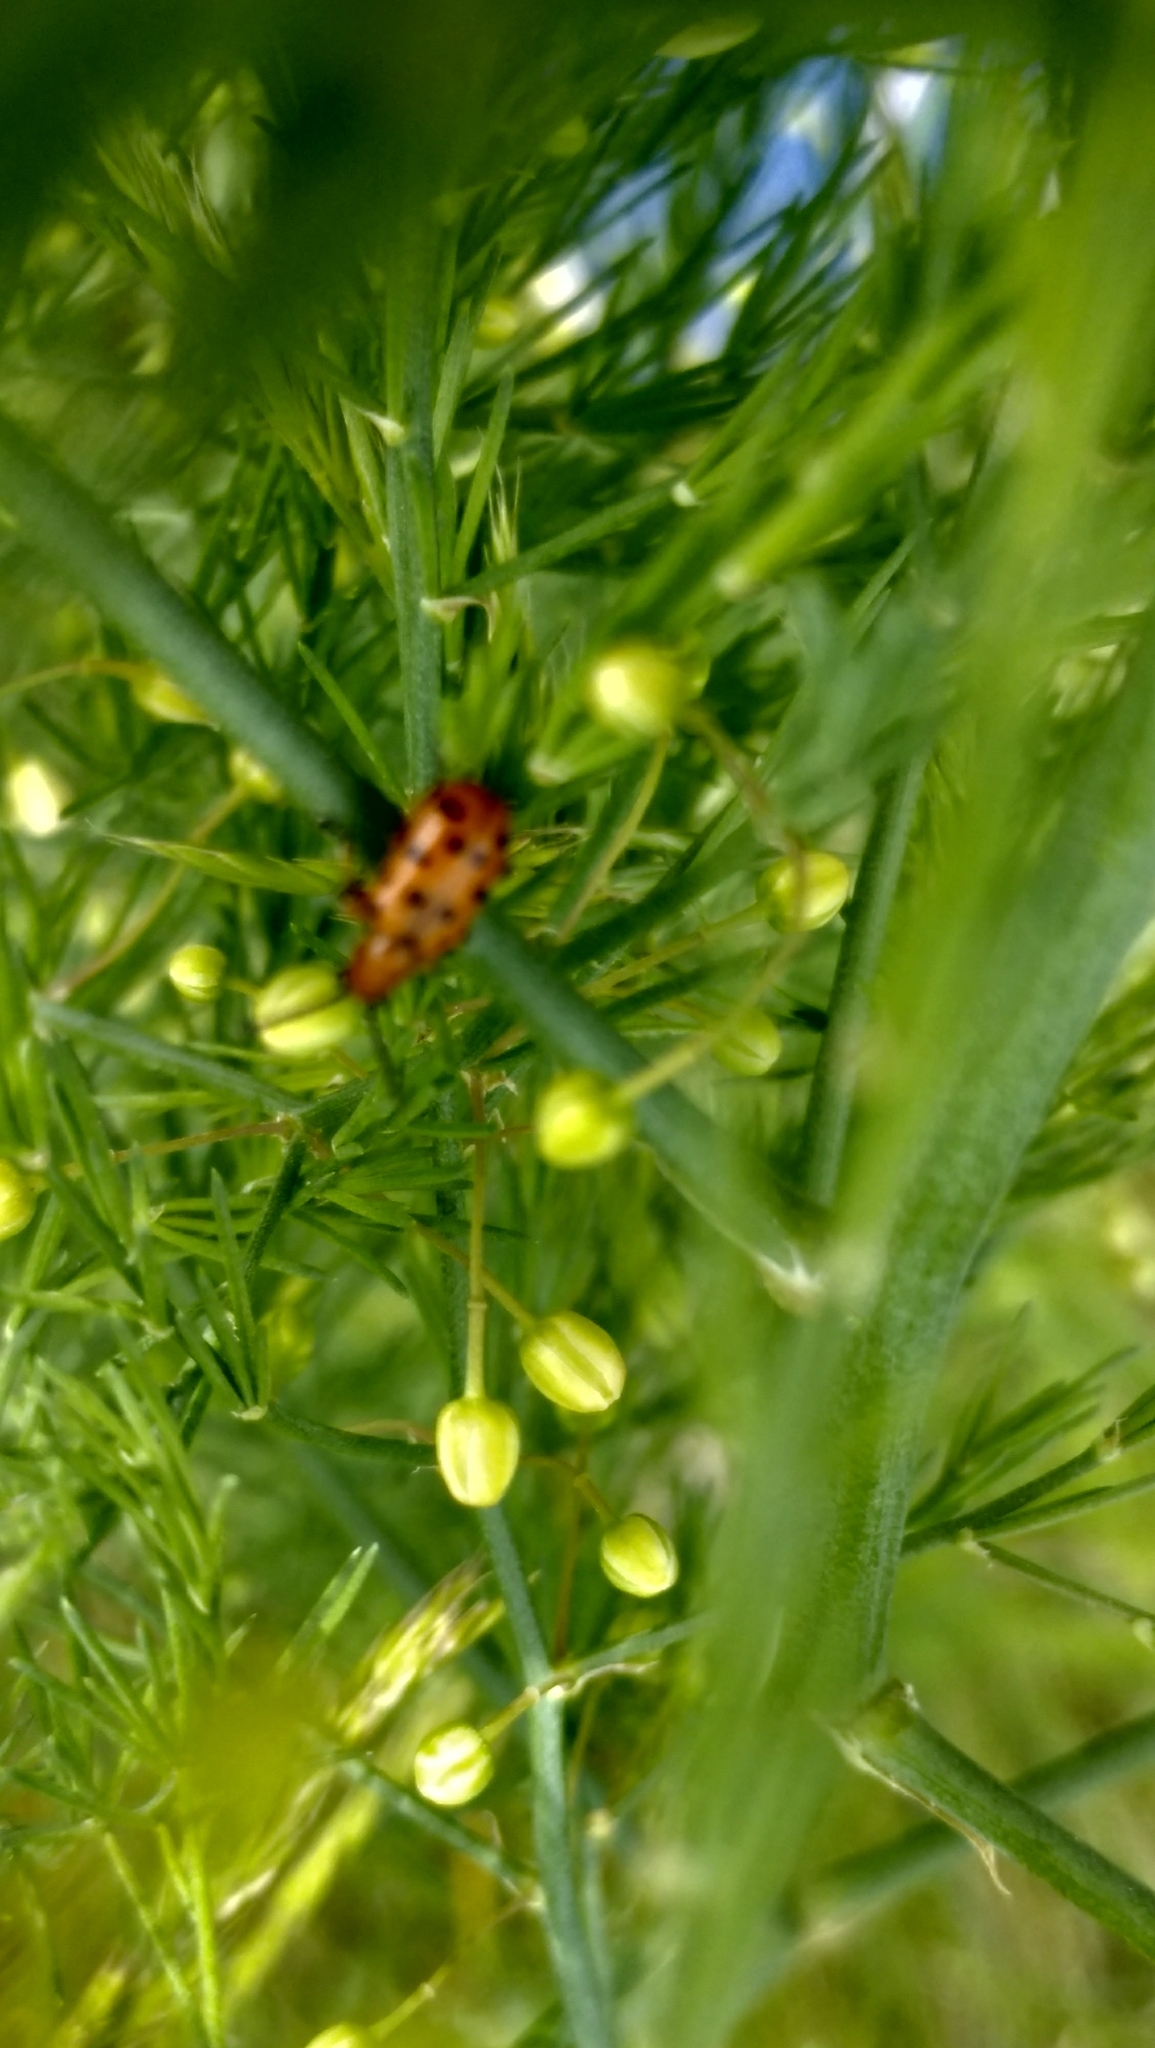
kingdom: Animalia
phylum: Arthropoda
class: Insecta
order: Coleoptera
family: Chrysomelidae
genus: Crioceris
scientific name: Crioceris duodecimpunctata
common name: Twelve-spotted asparagus beetle
